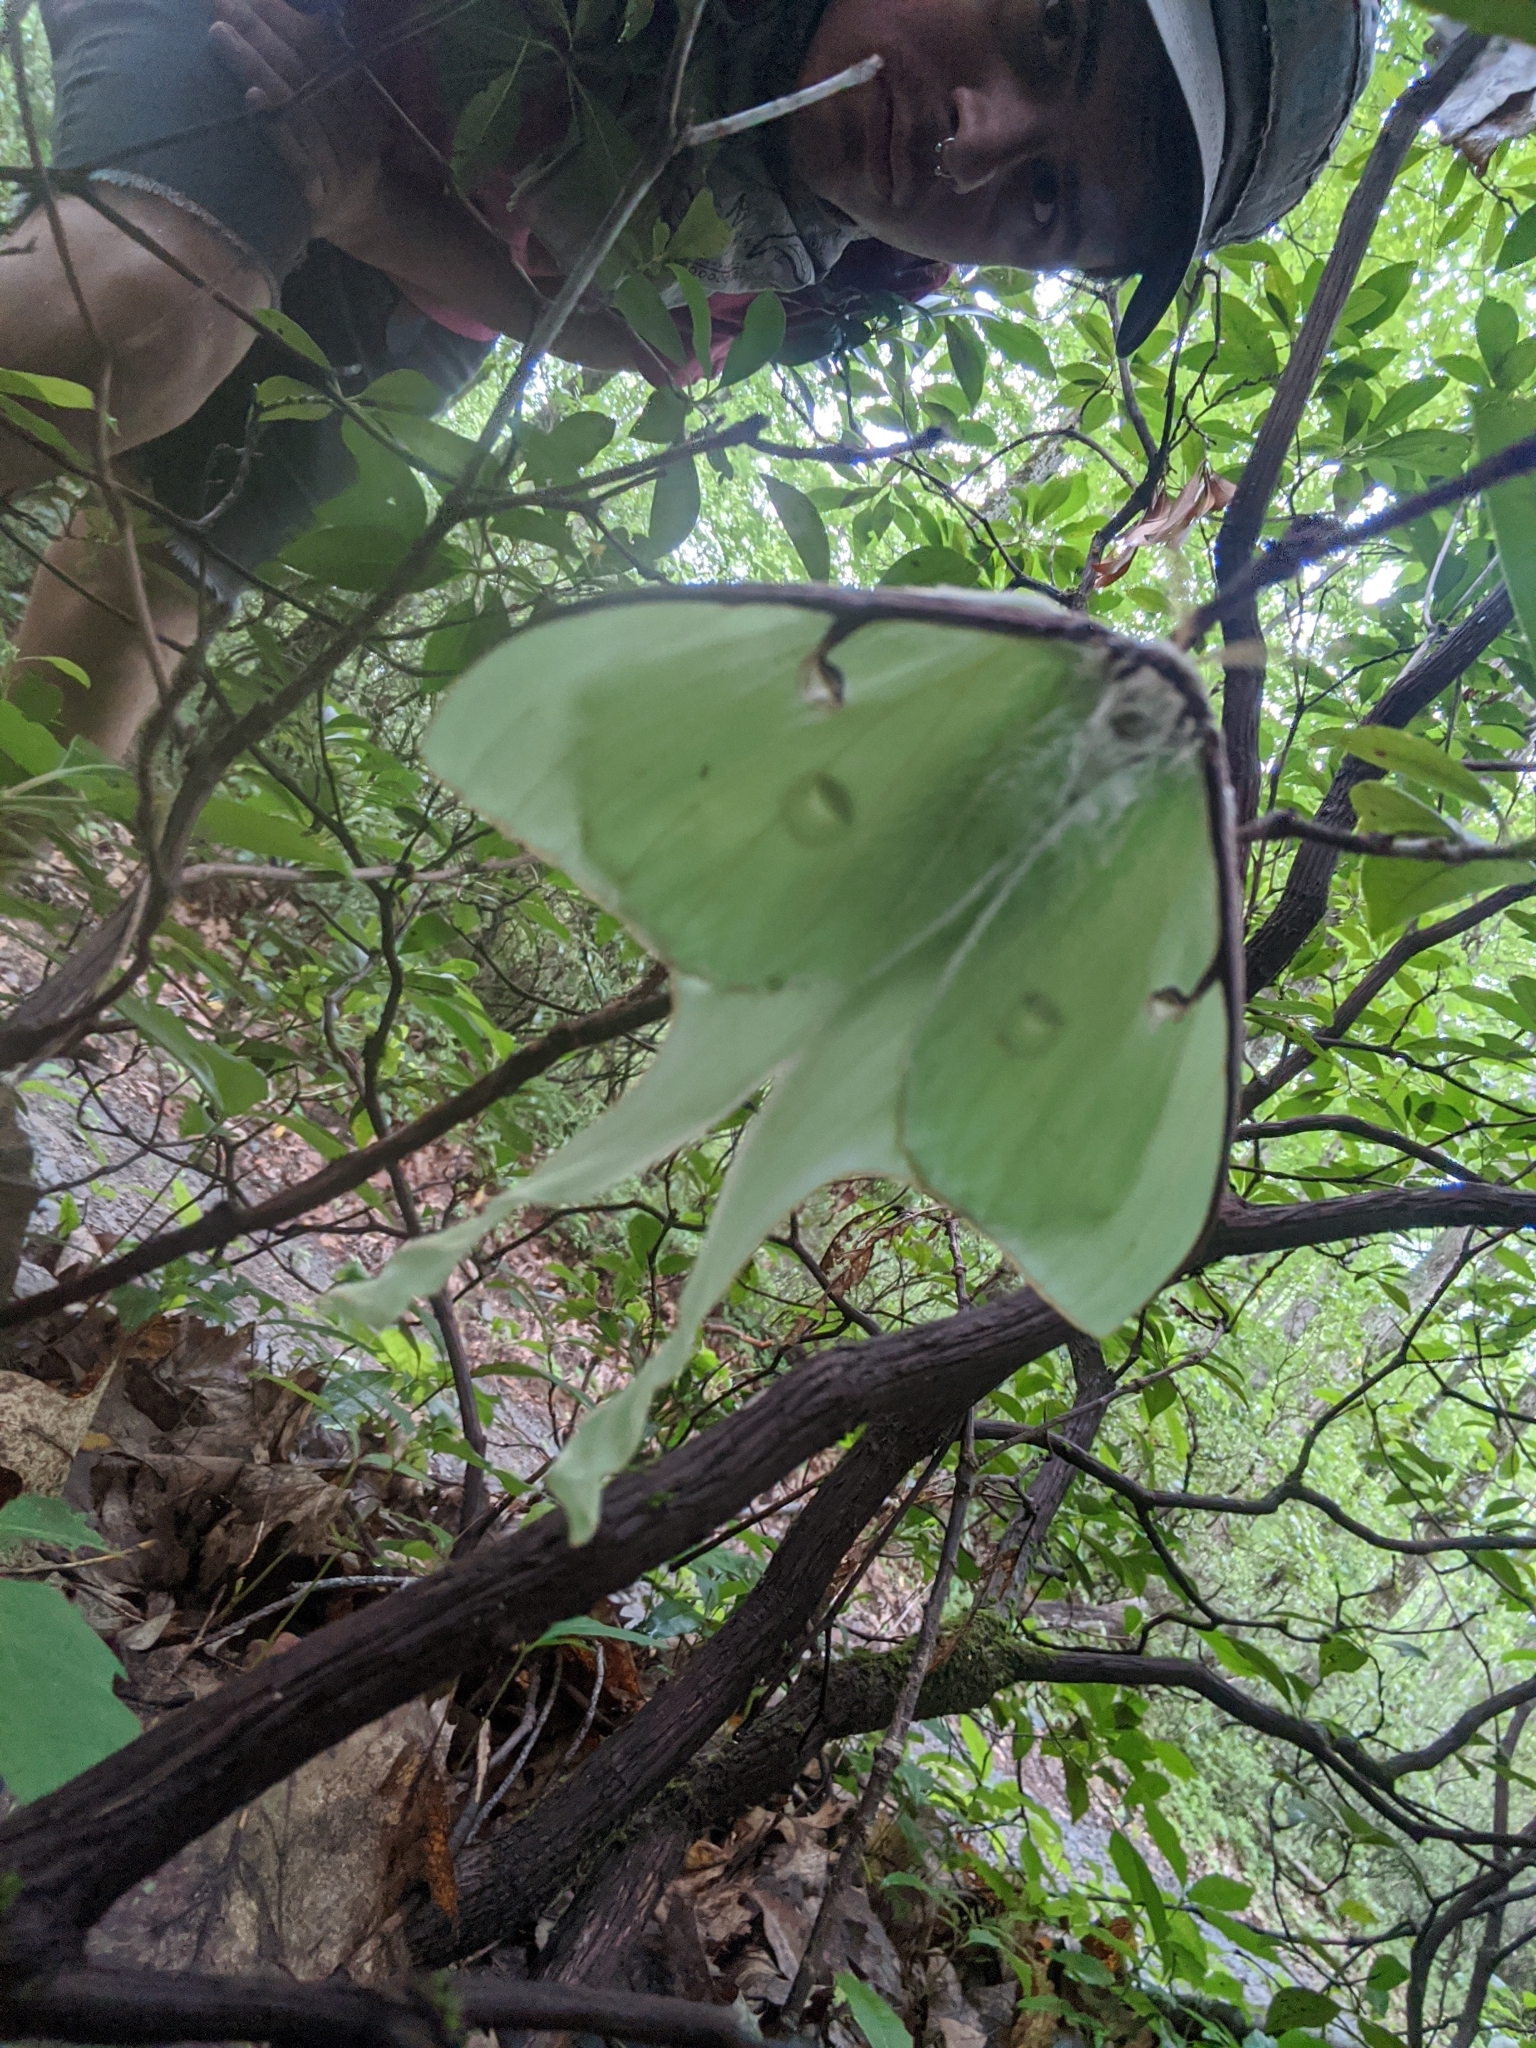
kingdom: Animalia
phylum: Arthropoda
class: Insecta
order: Lepidoptera
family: Saturniidae
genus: Actias
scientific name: Actias luna
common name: Luna moth
